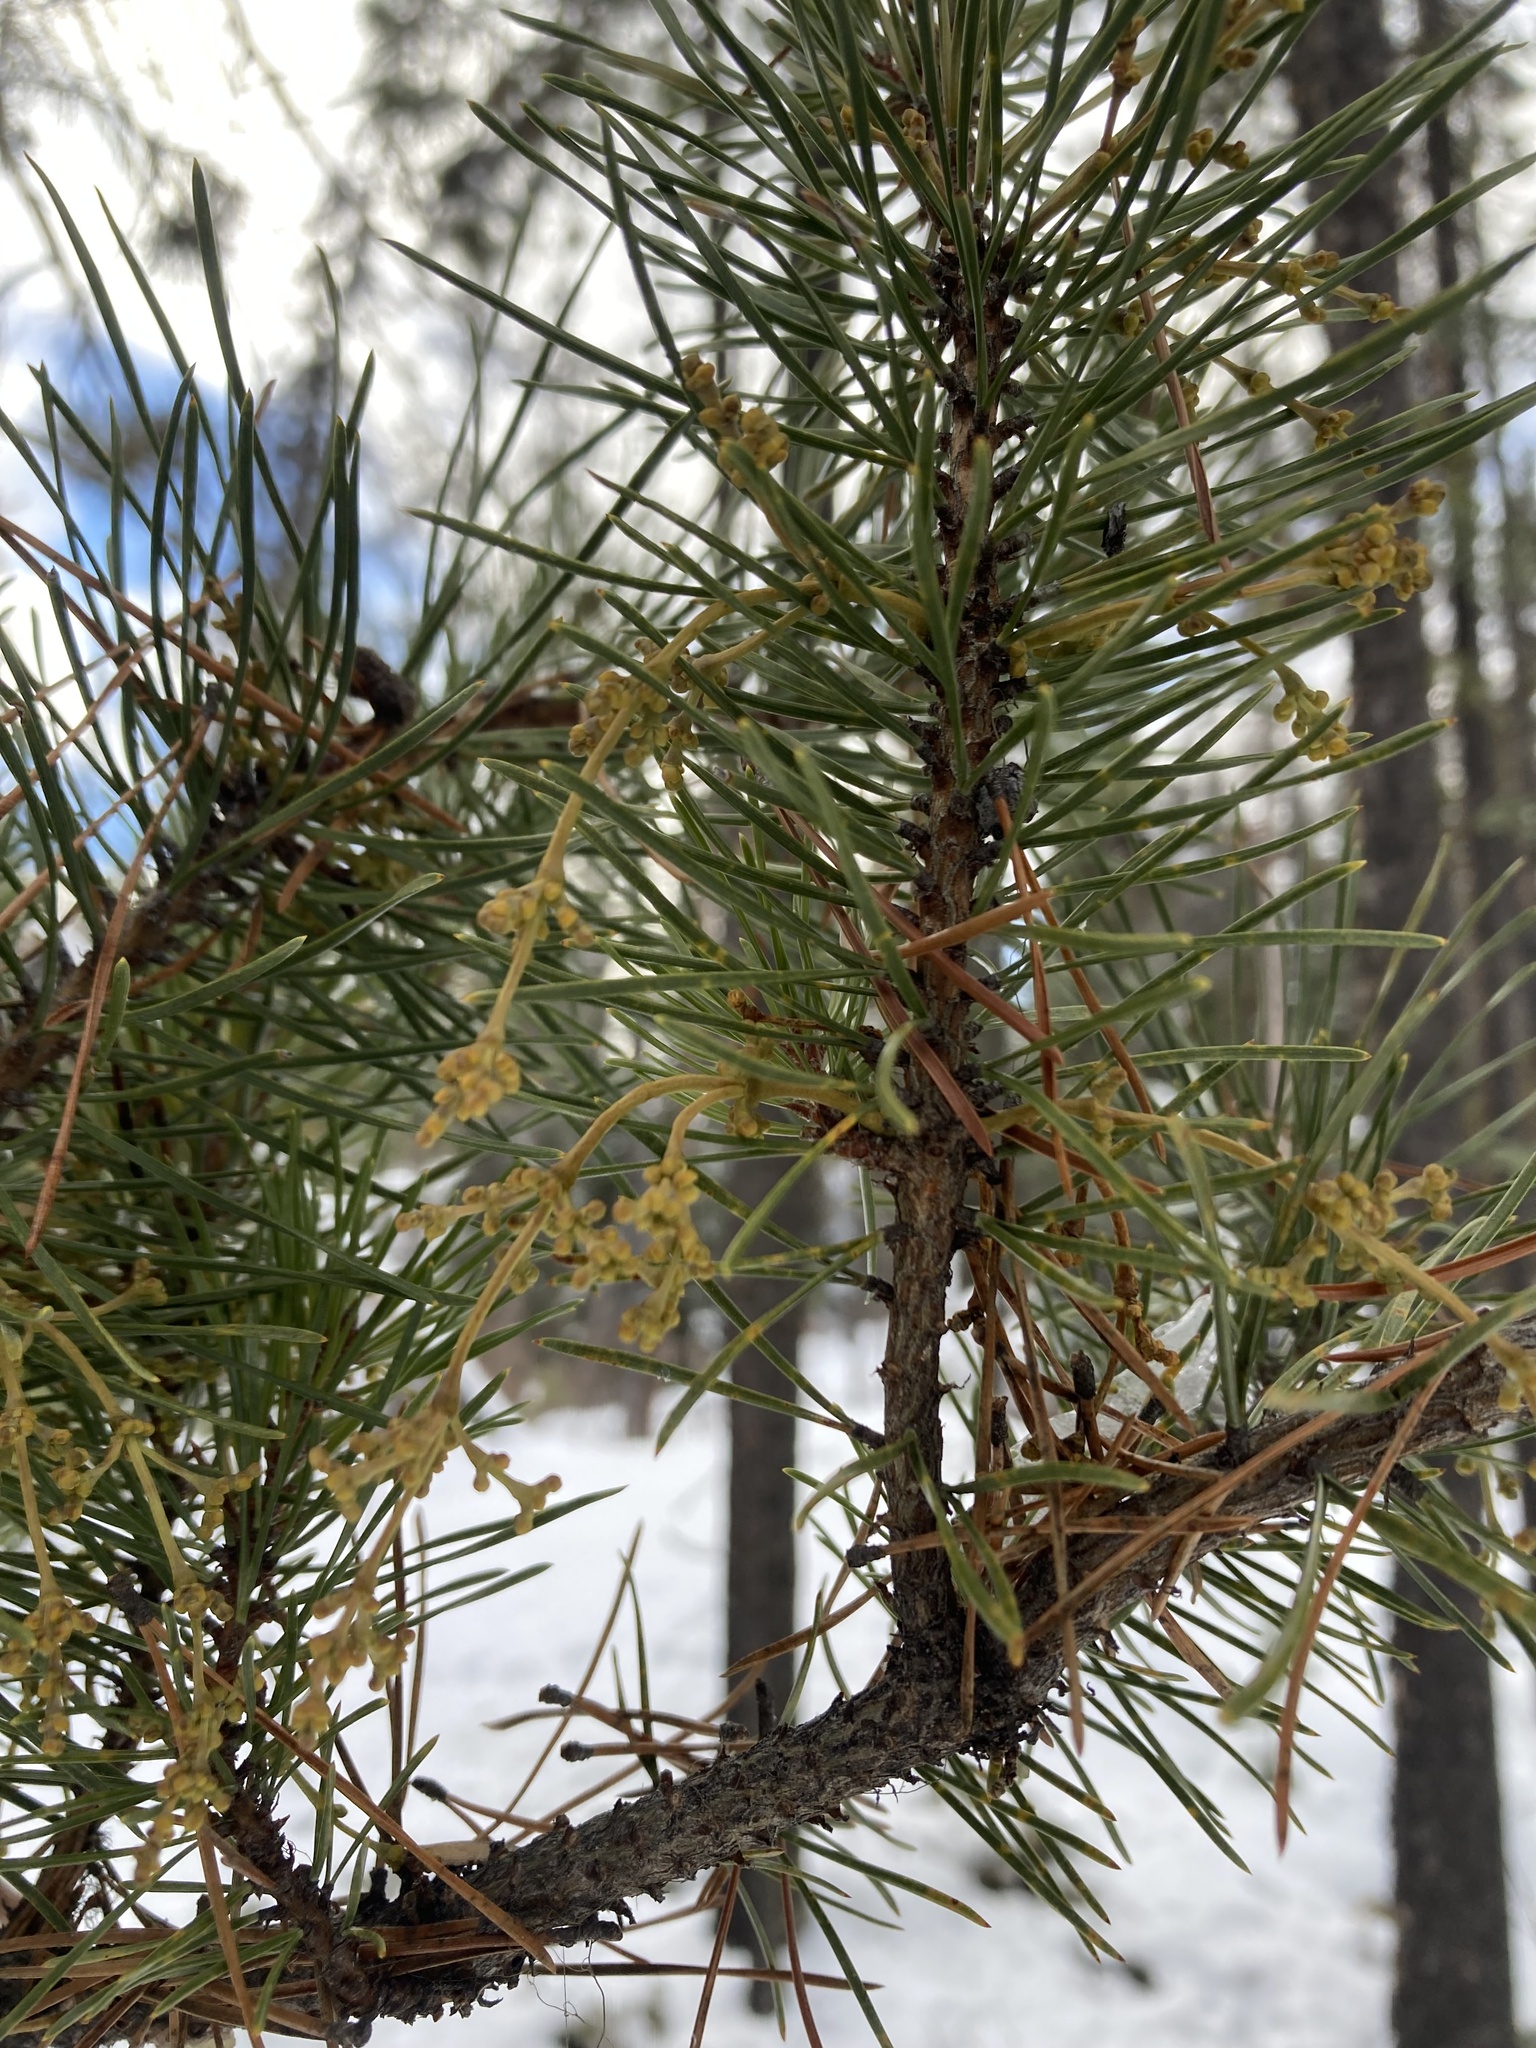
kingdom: Plantae
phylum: Tracheophyta
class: Magnoliopsida
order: Santalales
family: Viscaceae
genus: Arceuthobium
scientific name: Arceuthobium americanum
